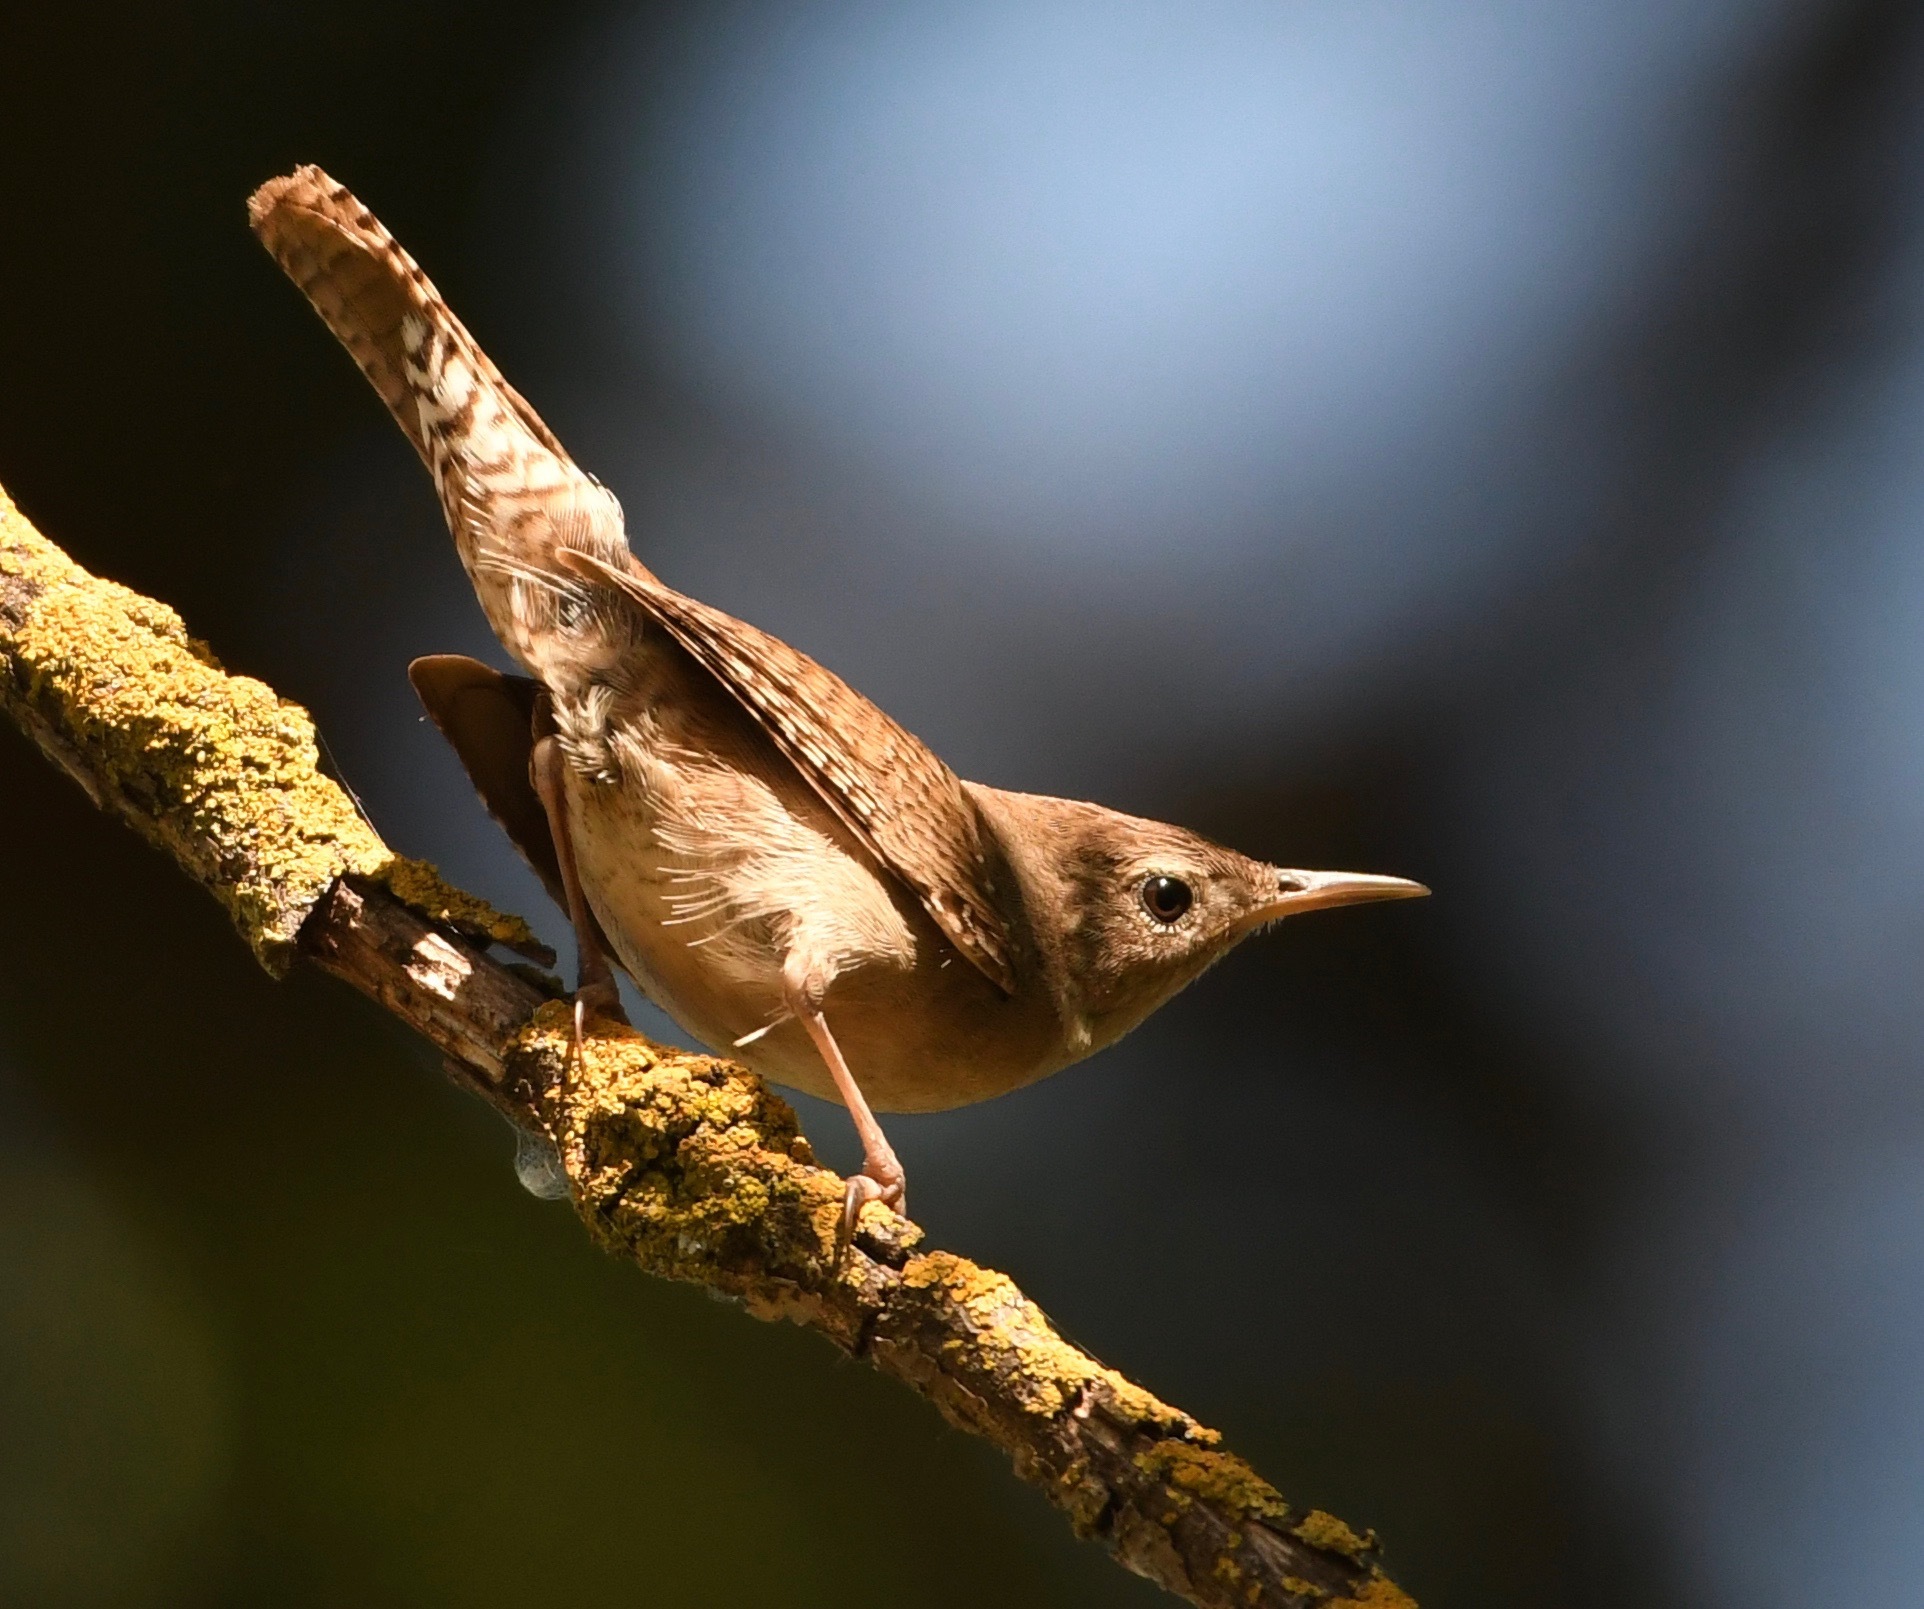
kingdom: Animalia
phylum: Chordata
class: Aves
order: Passeriformes
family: Troglodytidae
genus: Troglodytes
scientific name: Troglodytes aedon
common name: House wren
